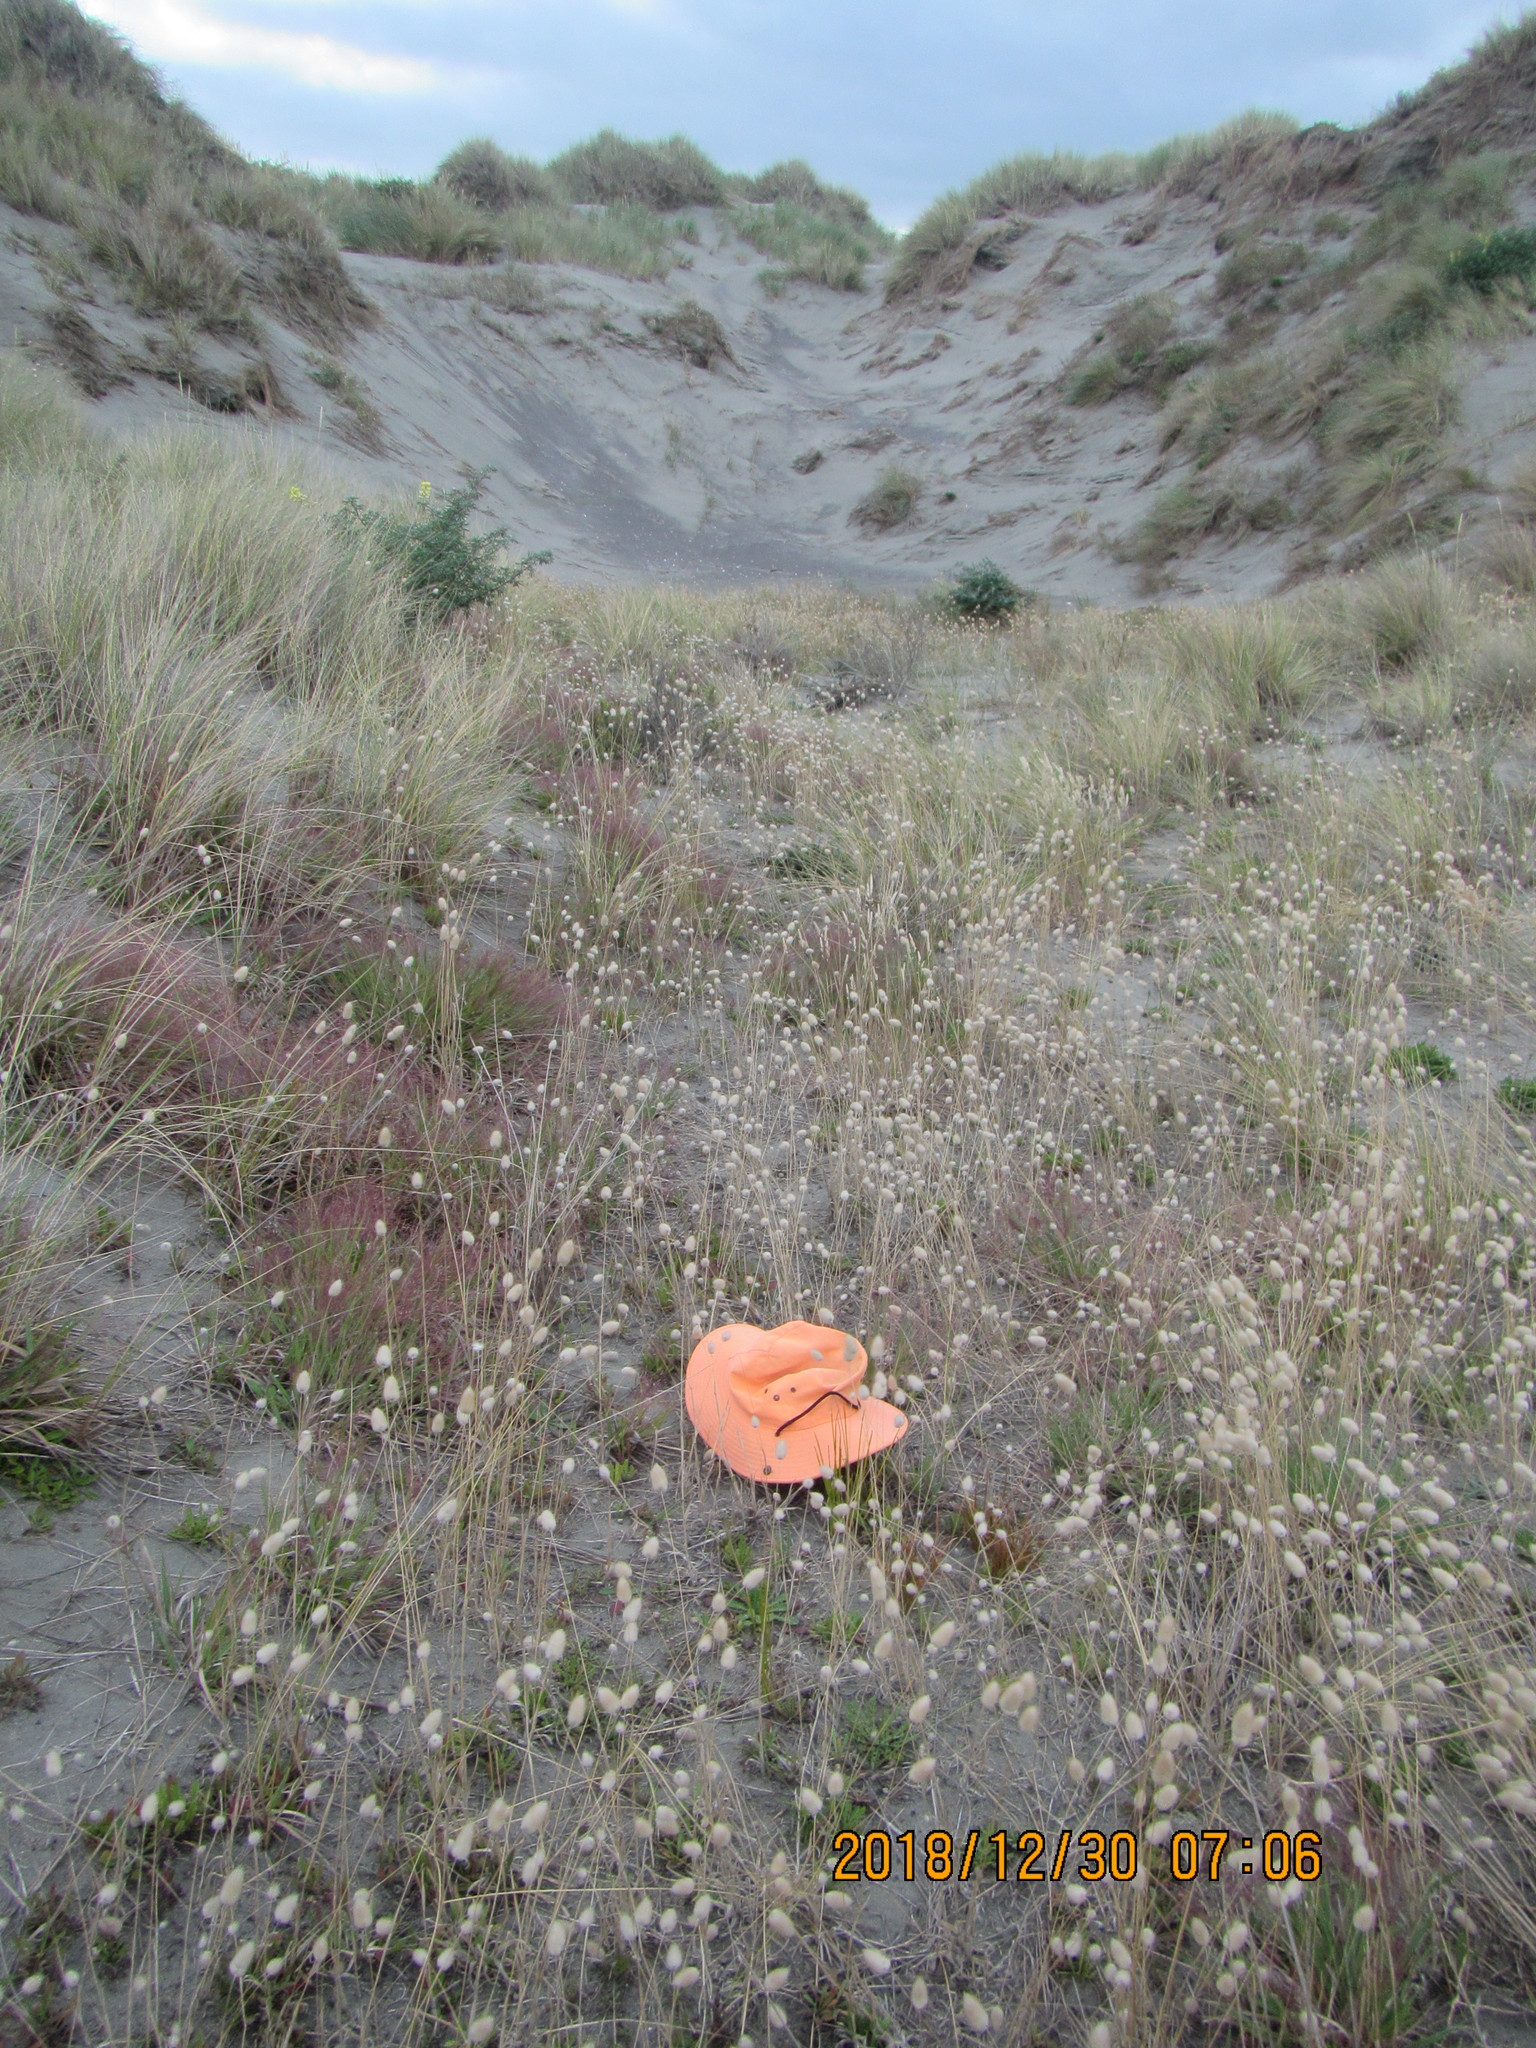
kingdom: Plantae
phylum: Tracheophyta
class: Liliopsida
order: Poales
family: Cyperaceae
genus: Carex
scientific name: Carex testacea
